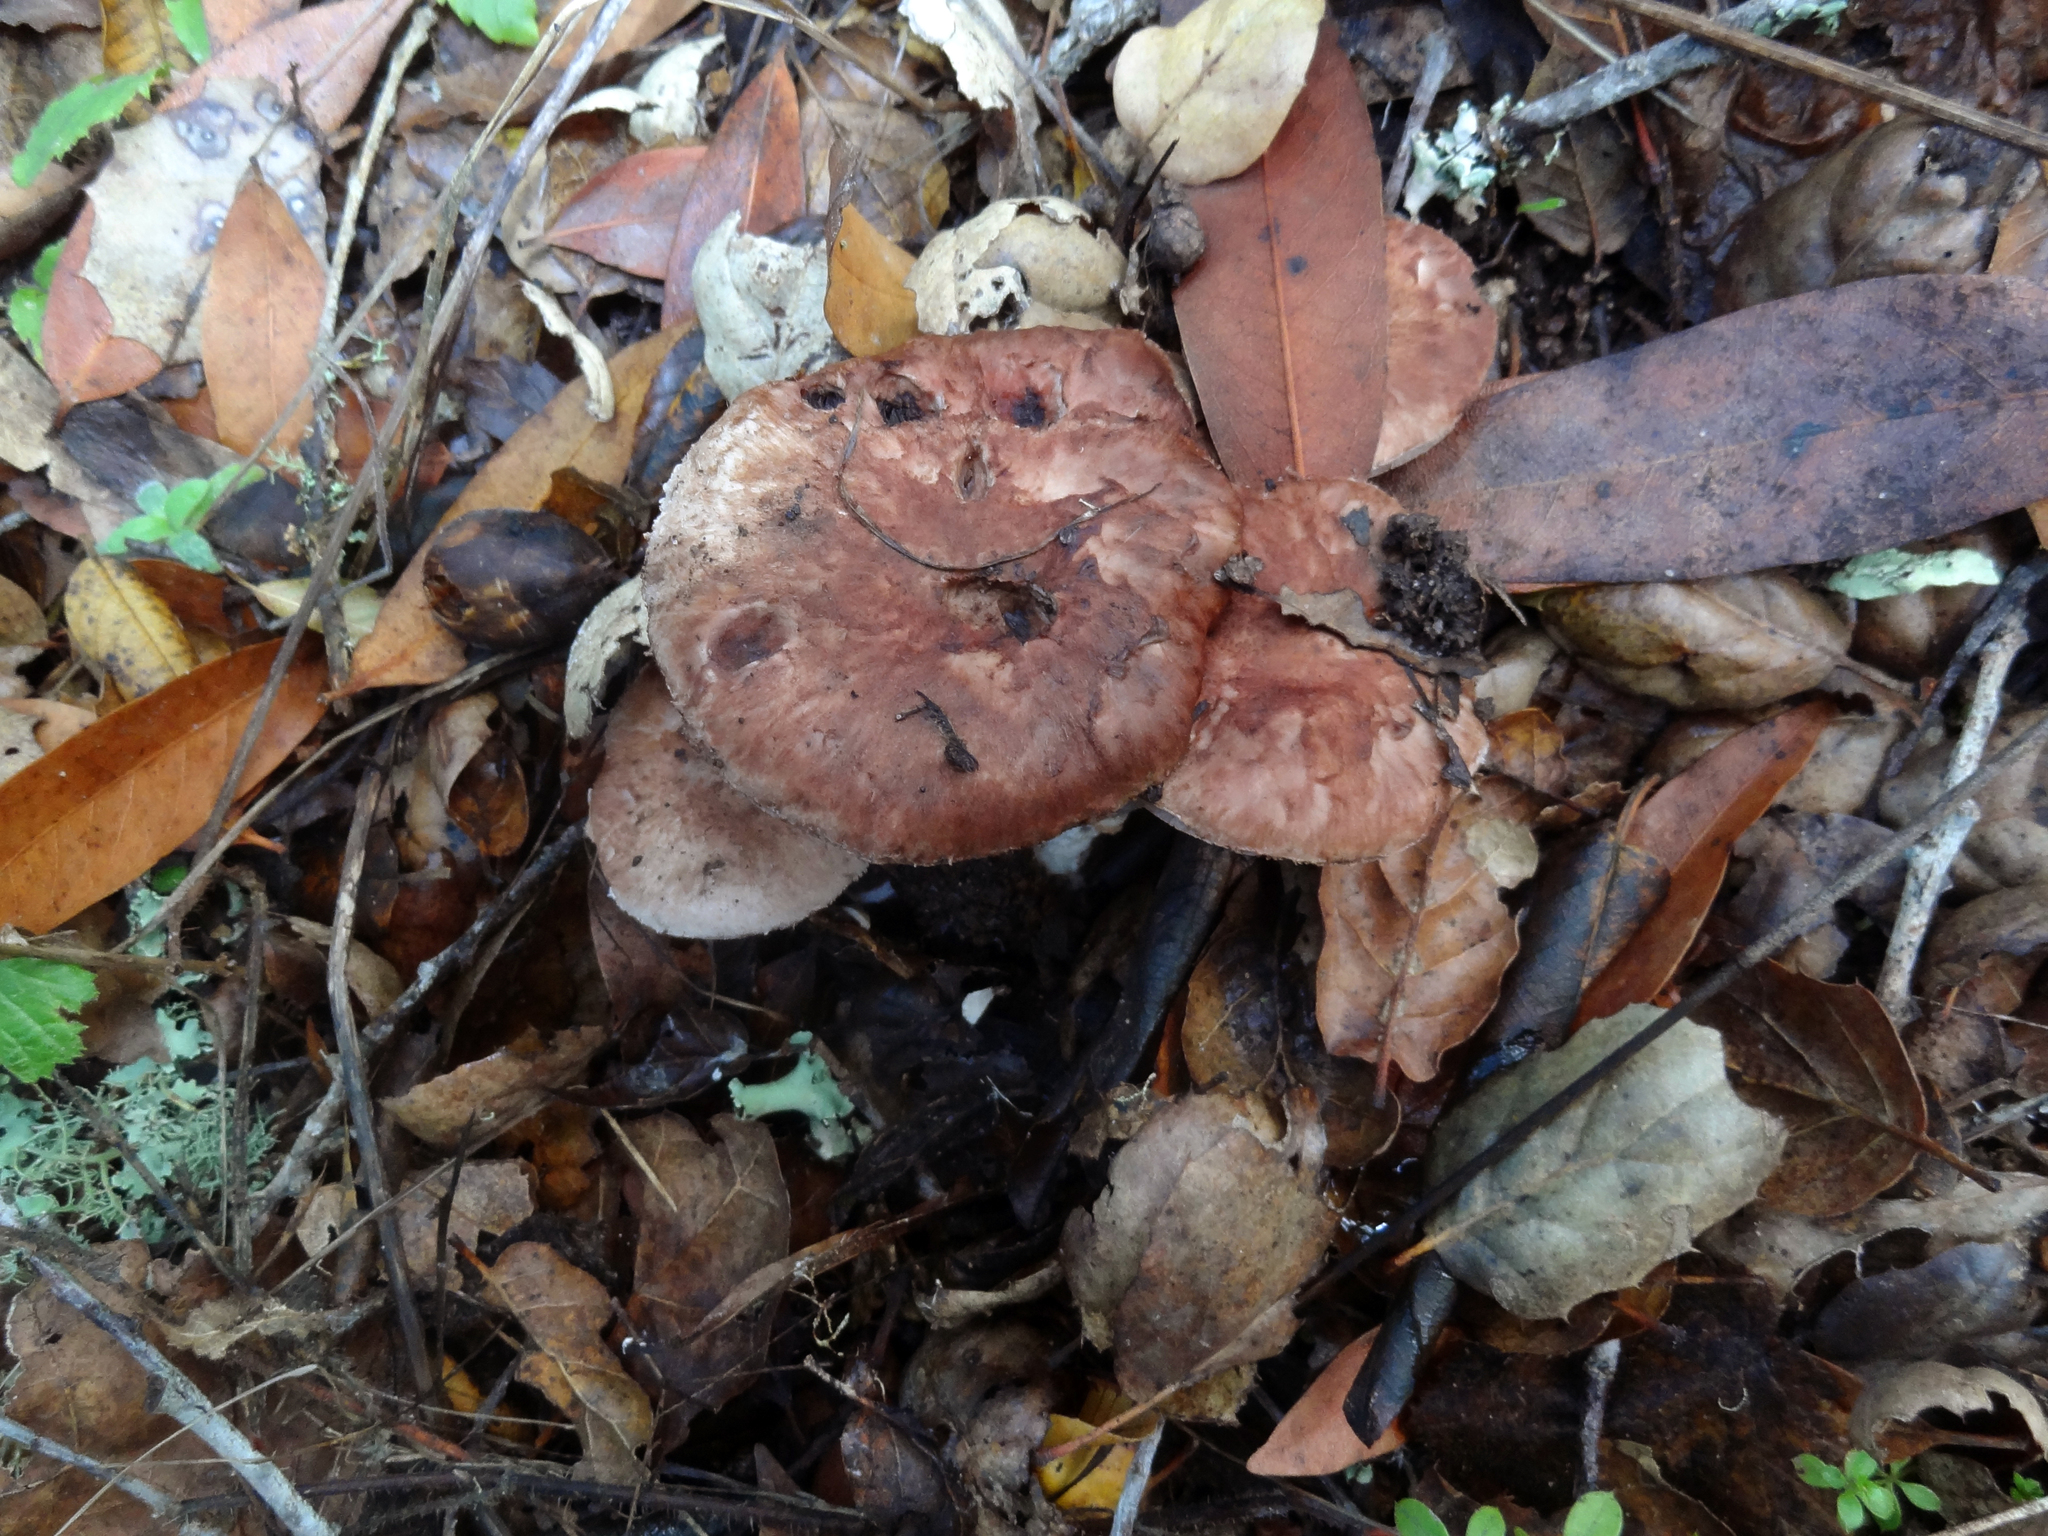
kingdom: Fungi
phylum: Basidiomycota
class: Agaricomycetes
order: Agaricales
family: Agaricaceae
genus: Agaricus
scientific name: Agaricus arorae
